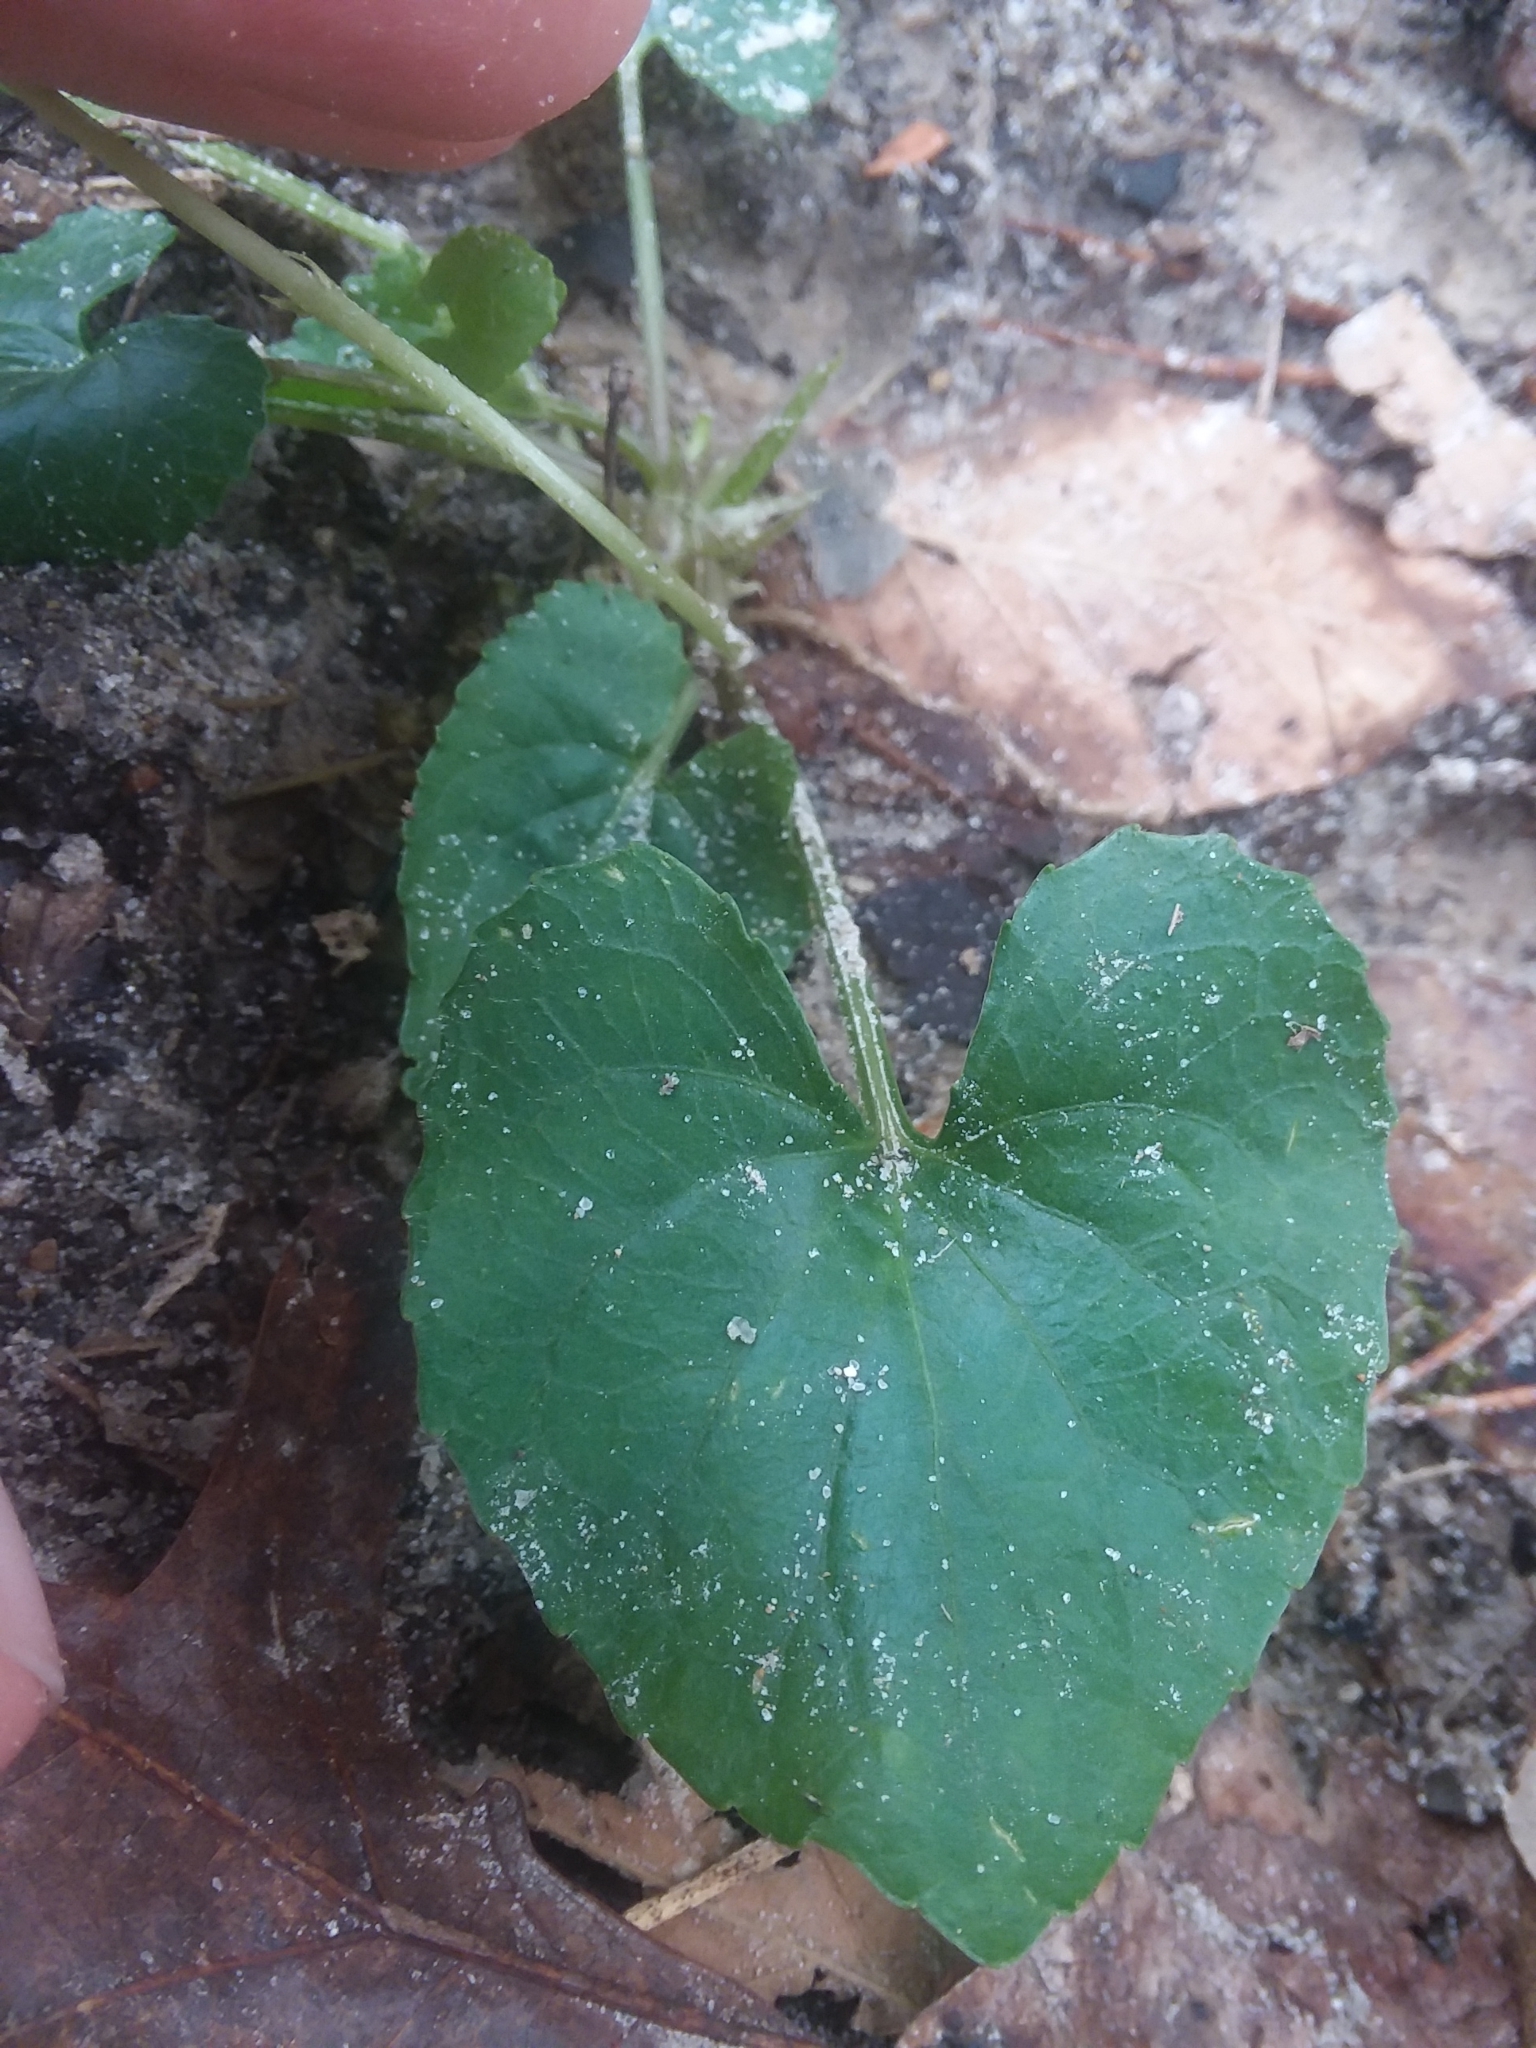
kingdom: Plantae
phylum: Tracheophyta
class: Magnoliopsida
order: Malpighiales
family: Violaceae
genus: Viola
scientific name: Viola sororia
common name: Dooryard violet
